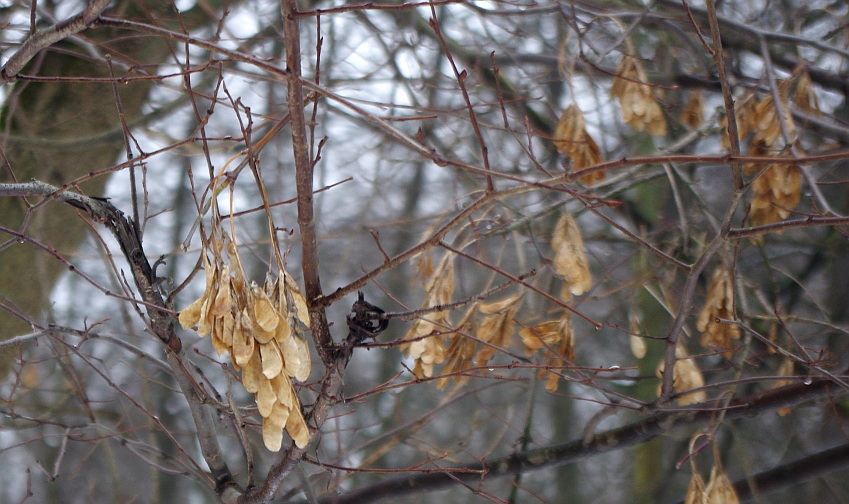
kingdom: Plantae
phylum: Tracheophyta
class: Magnoliopsida
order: Sapindales
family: Sapindaceae
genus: Acer
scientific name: Acer negundo
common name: Ashleaf maple
